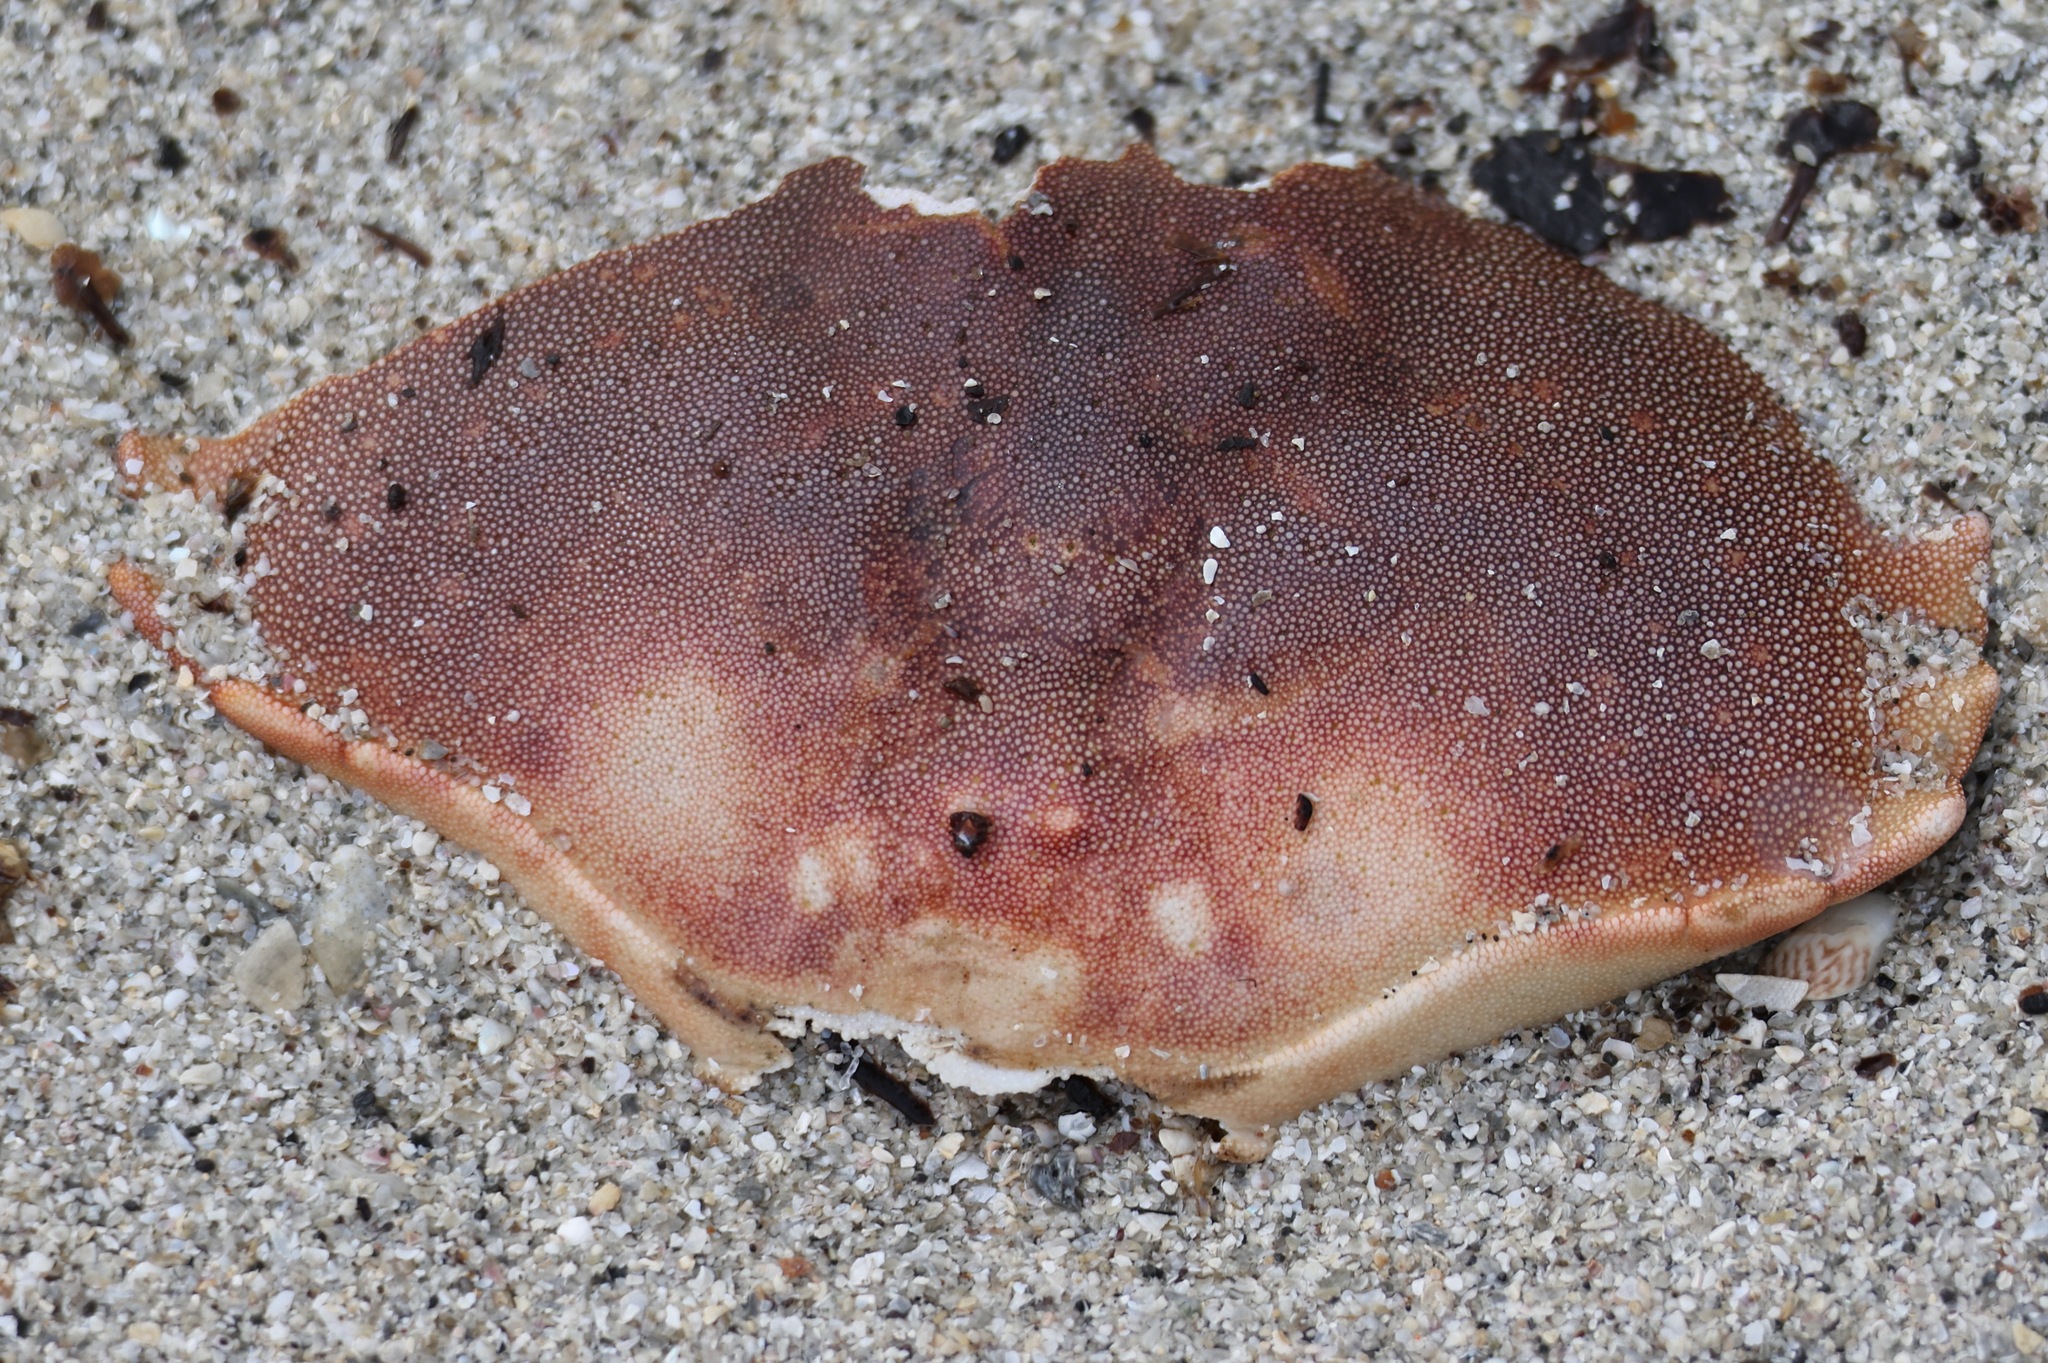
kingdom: Animalia
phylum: Arthropoda
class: Malacostraca
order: Decapoda
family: Cancridae
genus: Cancer
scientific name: Cancer pagurus
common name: Edible crab
